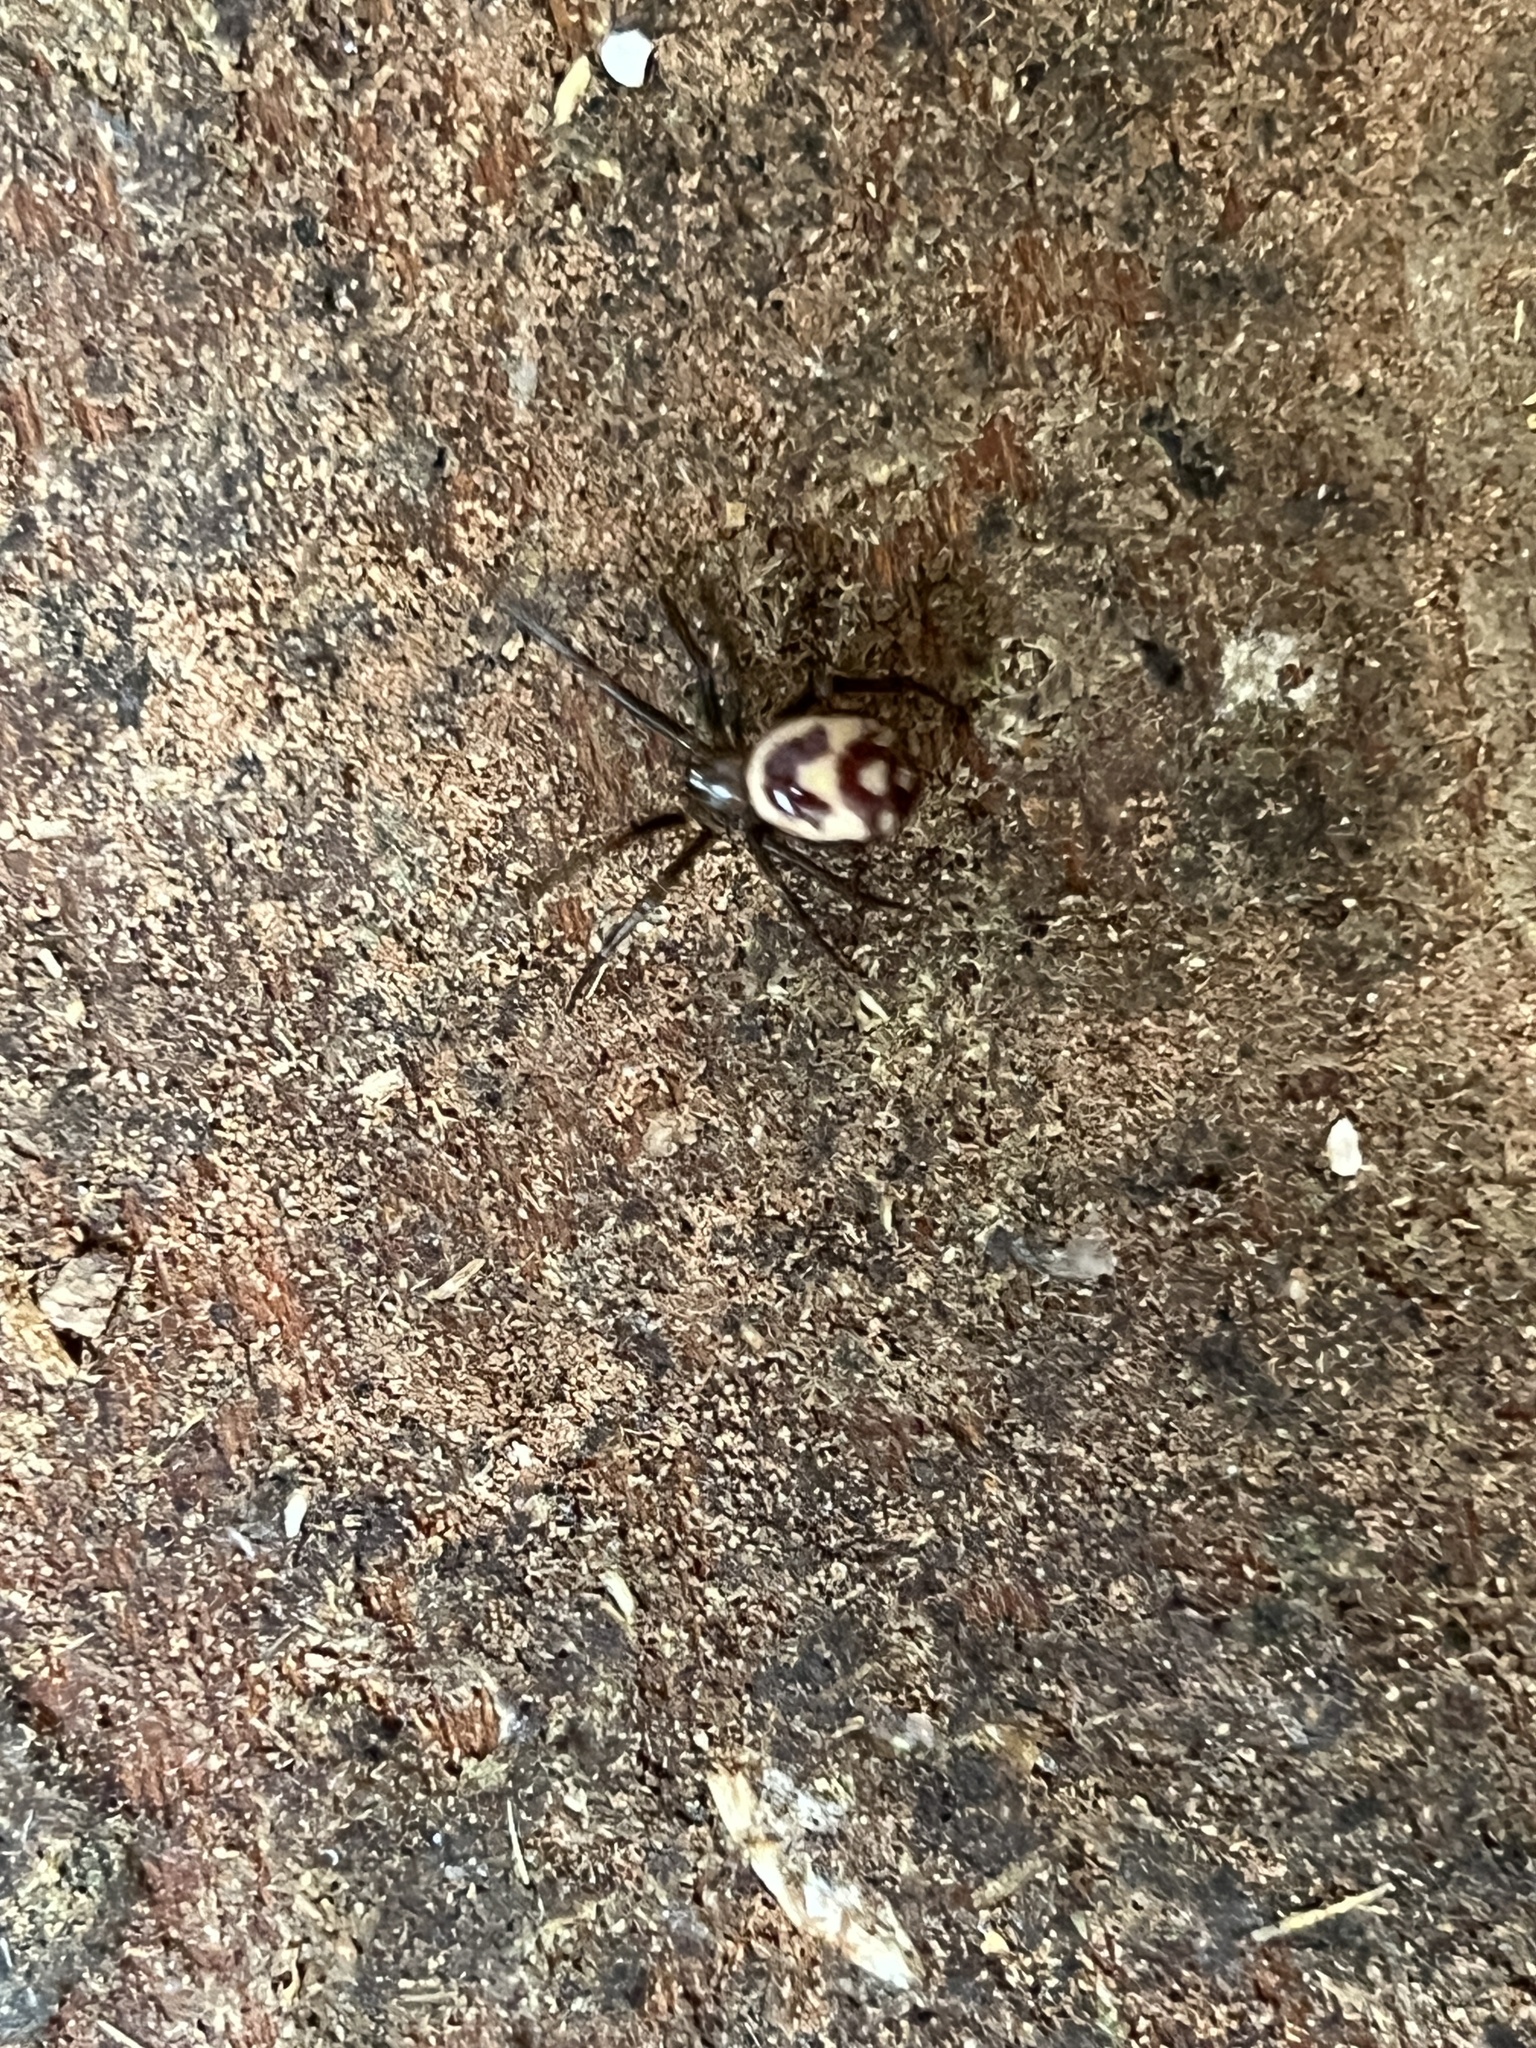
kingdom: Animalia
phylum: Arthropoda
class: Arachnida
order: Araneae
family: Theridiidae
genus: Steatoda
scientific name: Steatoda grossa
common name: False black widow
